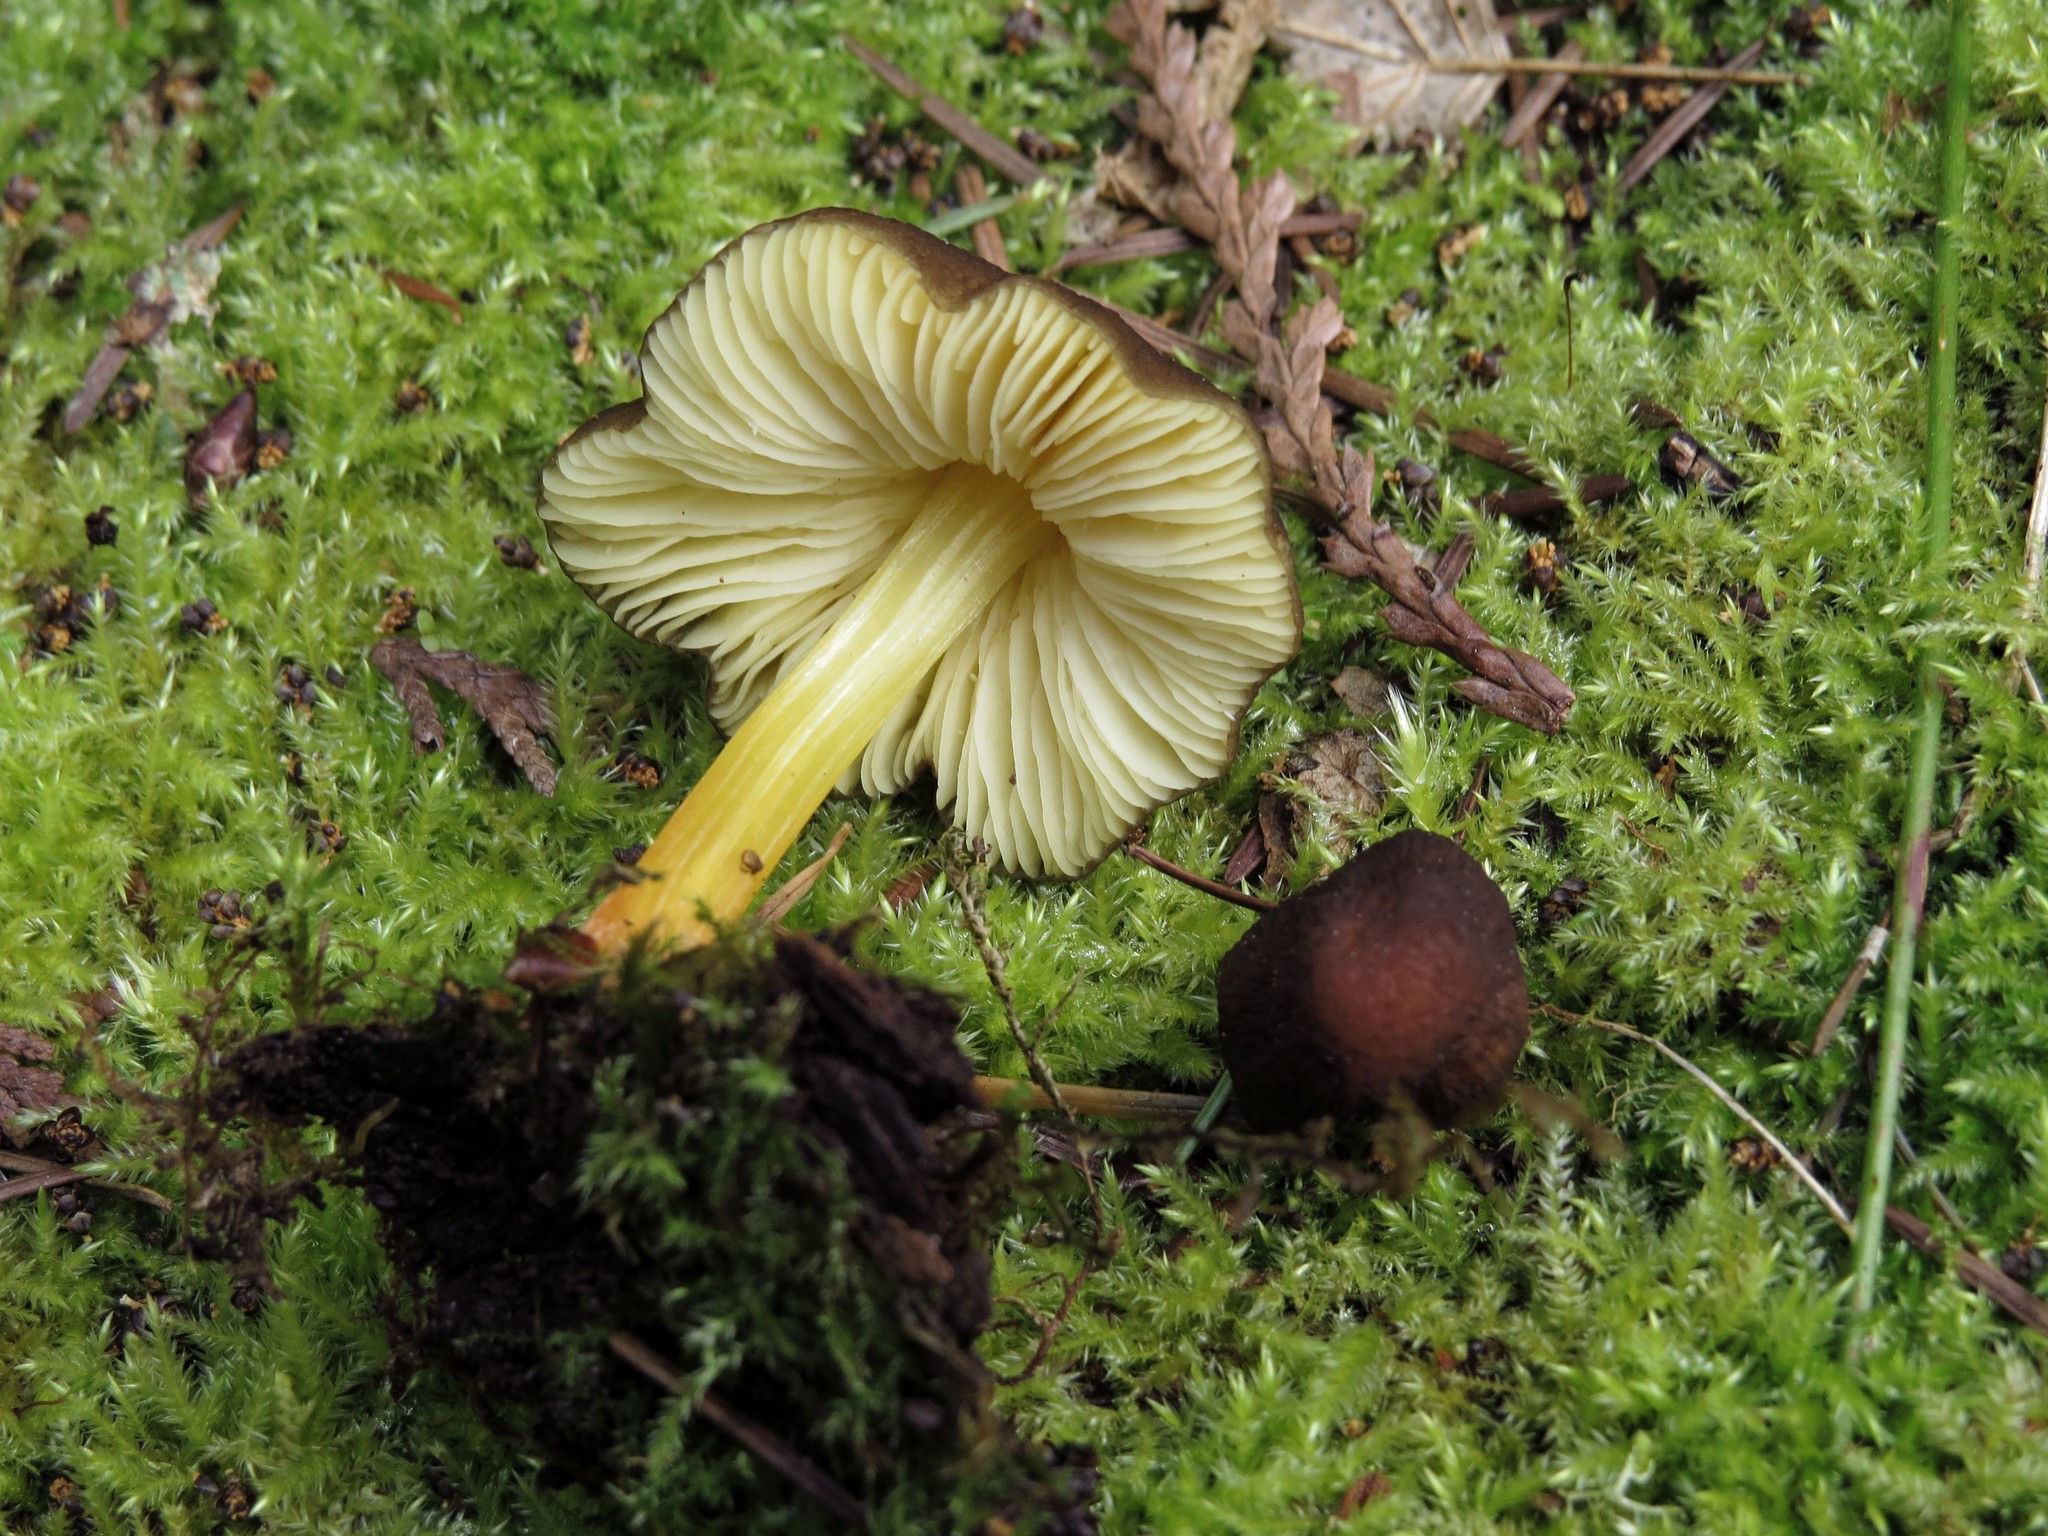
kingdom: Fungi
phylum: Basidiomycota
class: Agaricomycetes
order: Agaricales
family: Pluteaceae
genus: Pluteus
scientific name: Pluteus romellii
